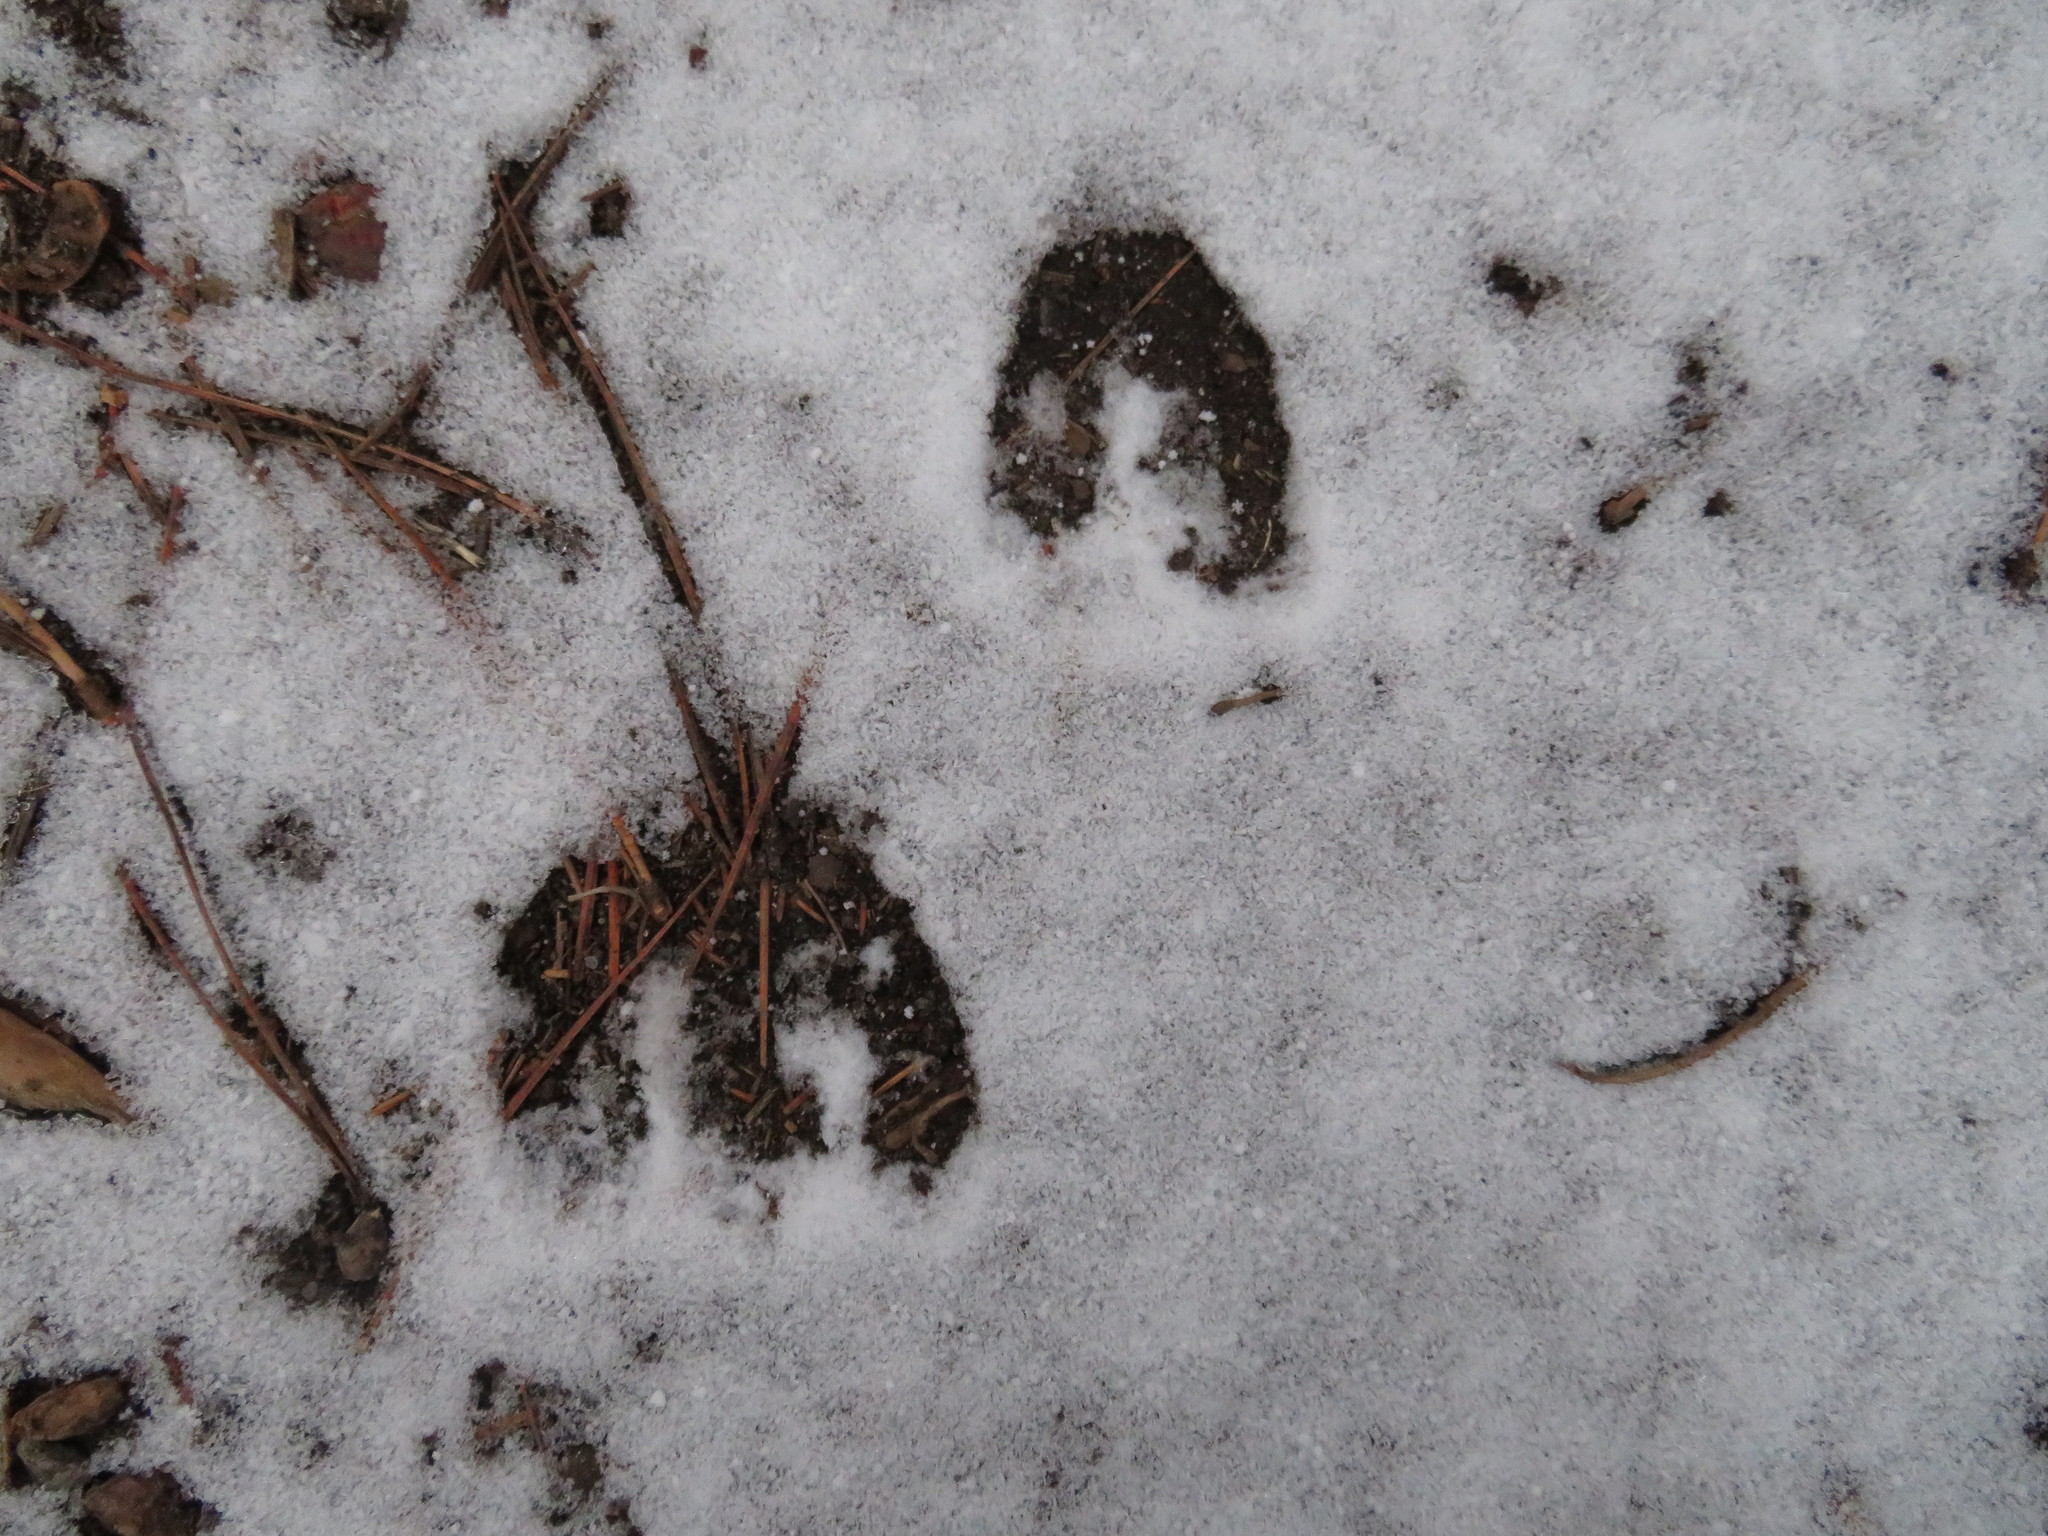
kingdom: Animalia
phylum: Chordata
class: Mammalia
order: Artiodactyla
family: Cervidae
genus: Odocoileus
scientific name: Odocoileus
